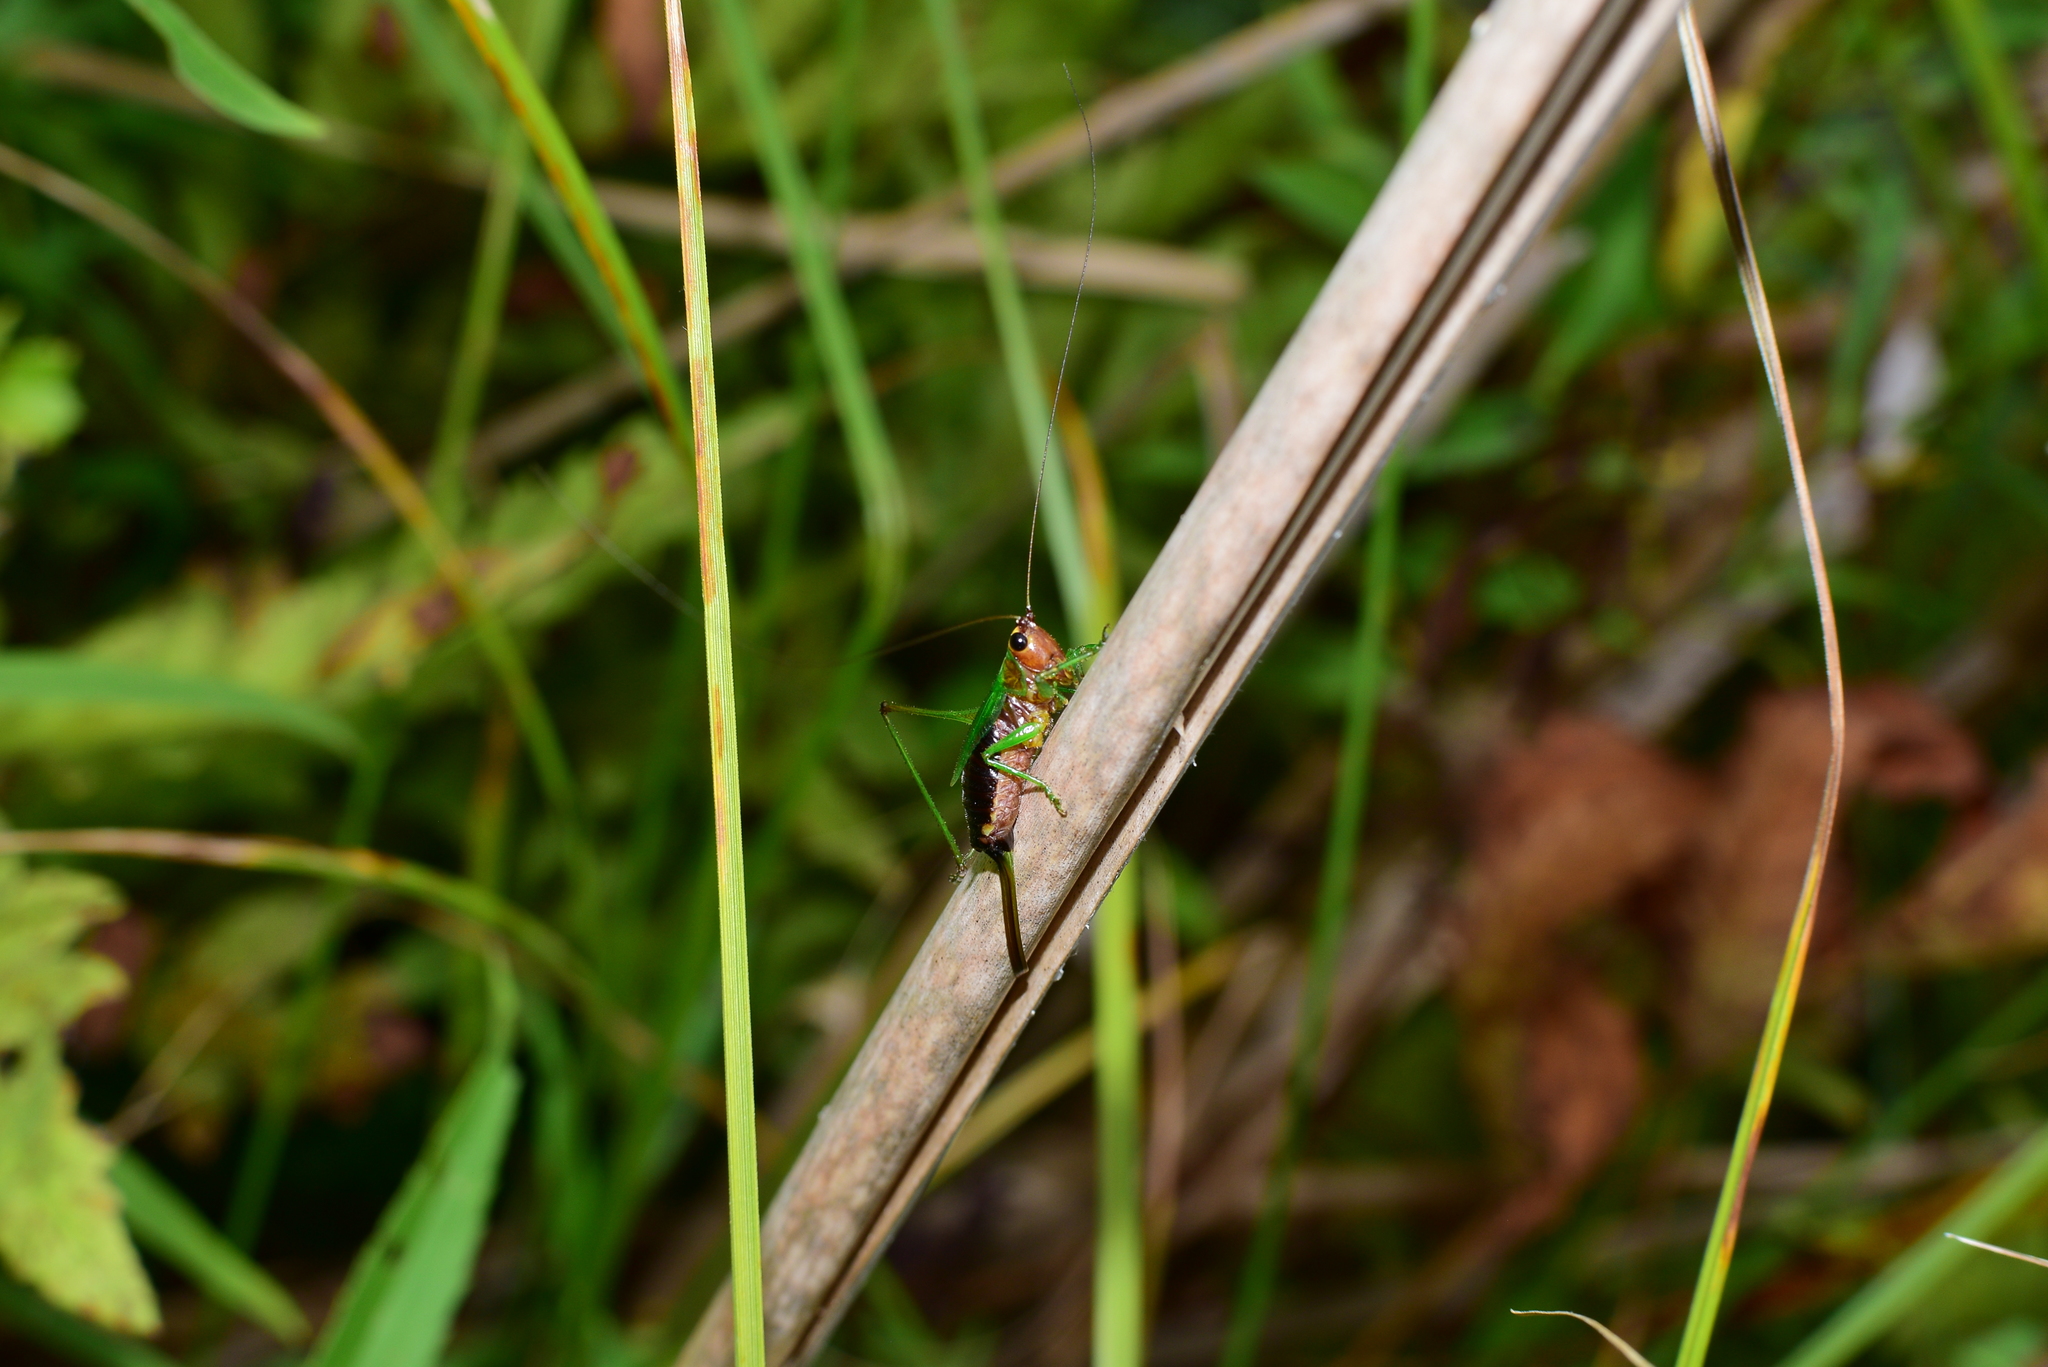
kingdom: Animalia
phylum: Arthropoda
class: Insecta
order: Orthoptera
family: Tettigoniidae
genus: Conocephalus
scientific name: Conocephalus nigropleurum
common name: Black-sided meadow katydid
